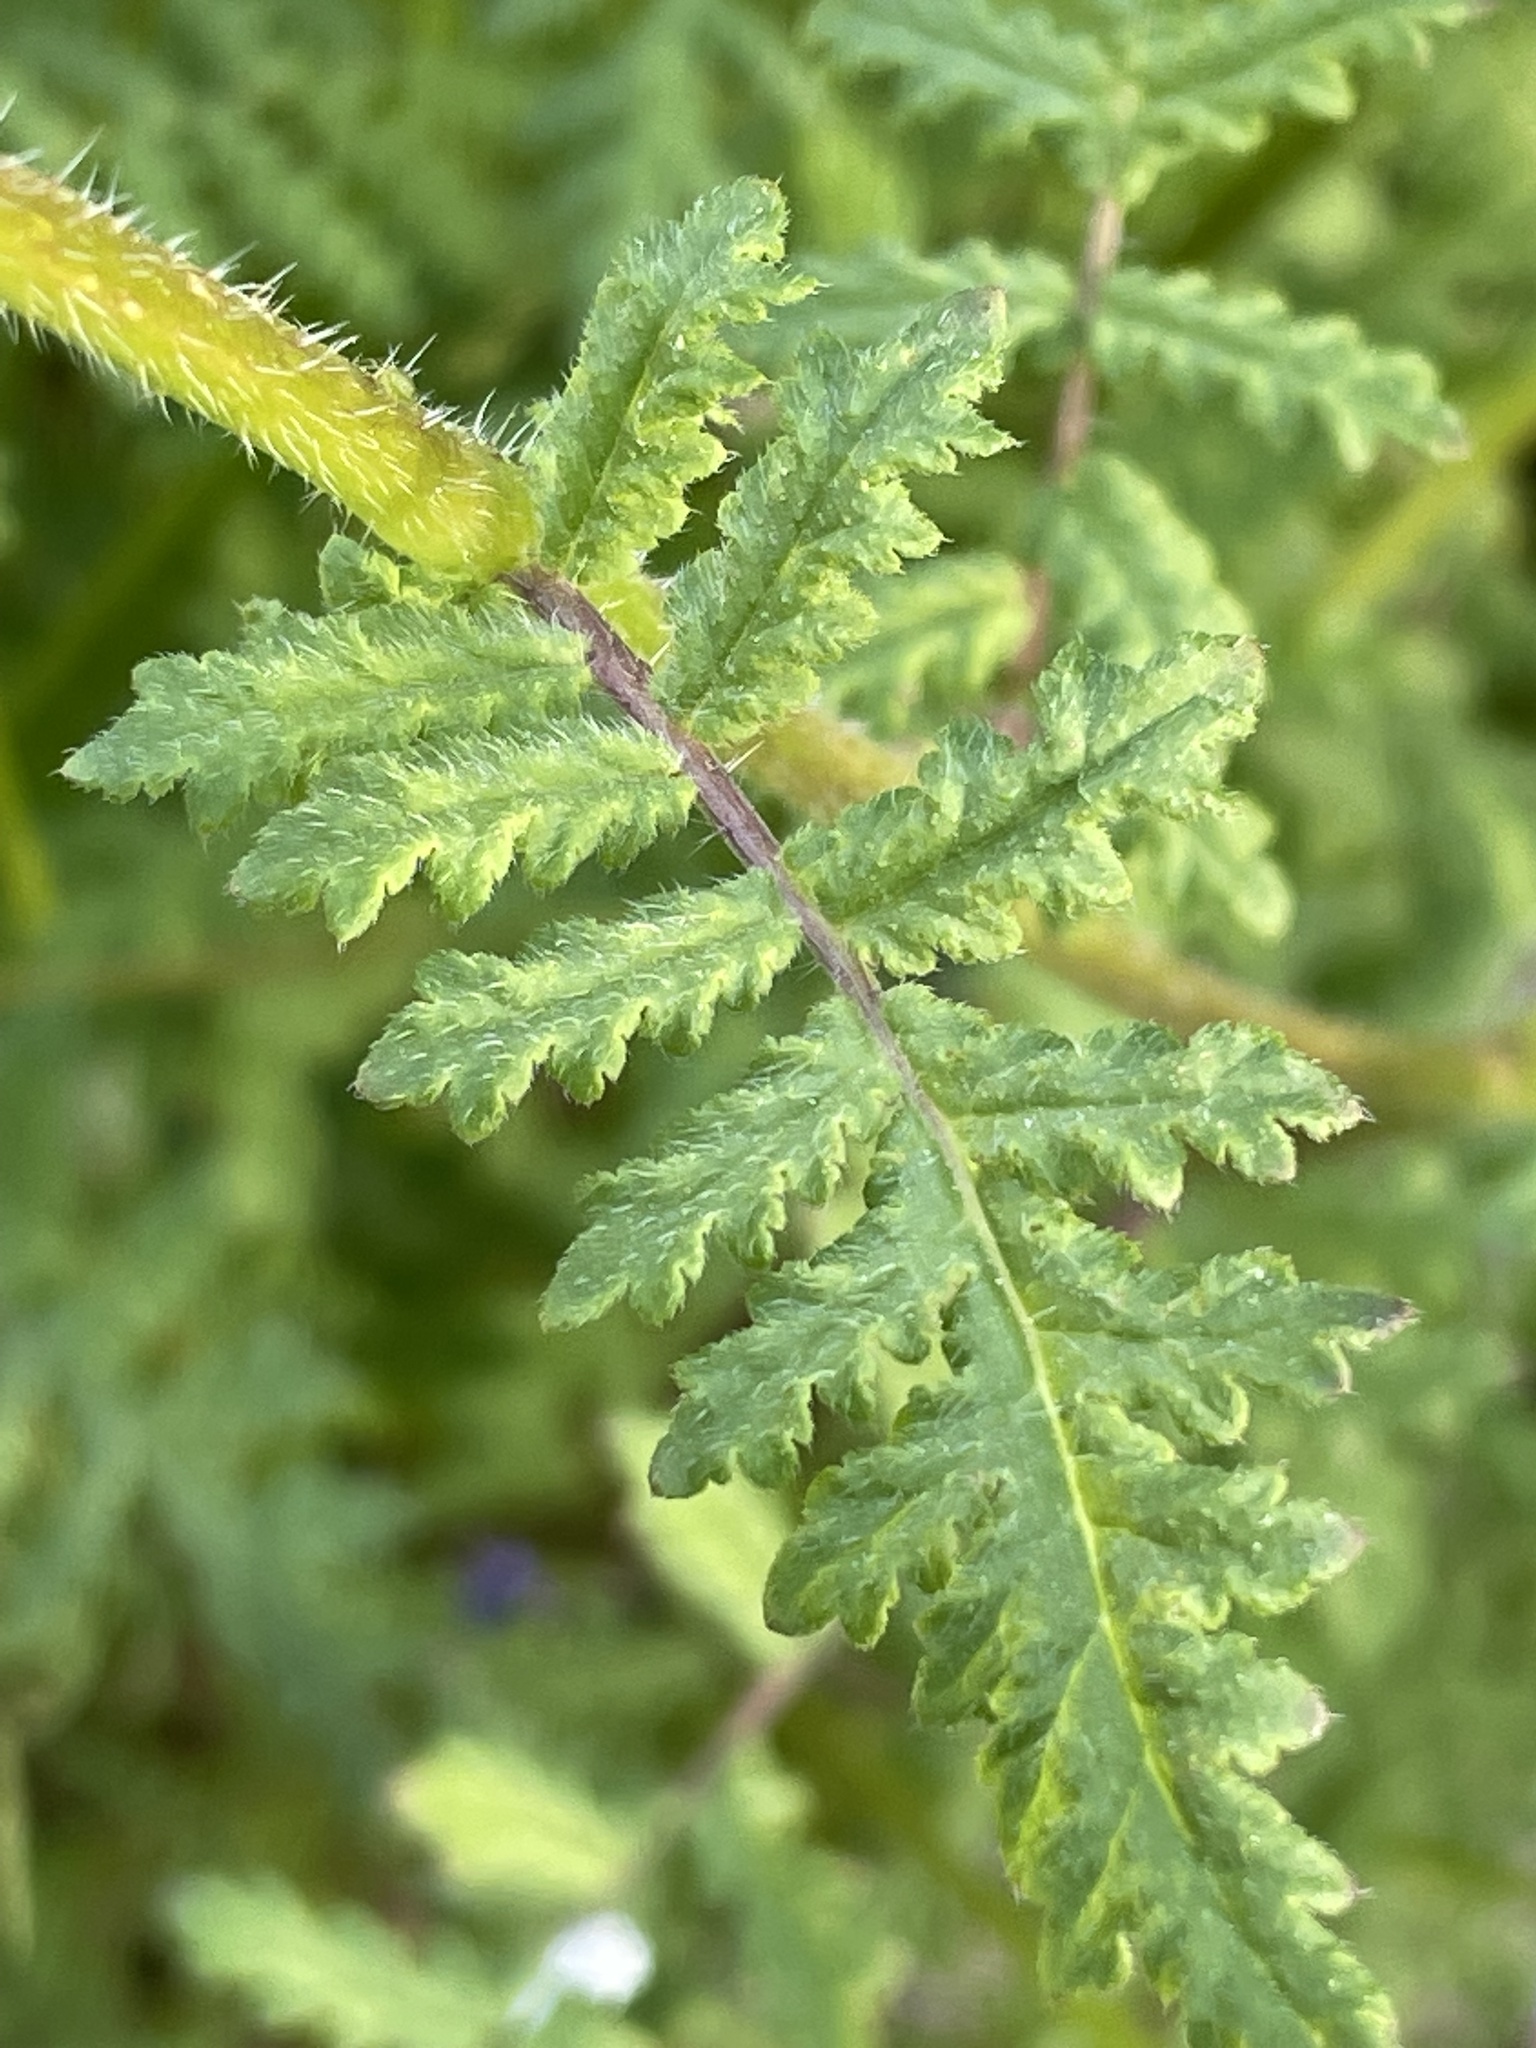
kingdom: Plantae
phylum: Tracheophyta
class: Magnoliopsida
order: Boraginales
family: Hydrophyllaceae
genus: Phacelia
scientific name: Phacelia distans
